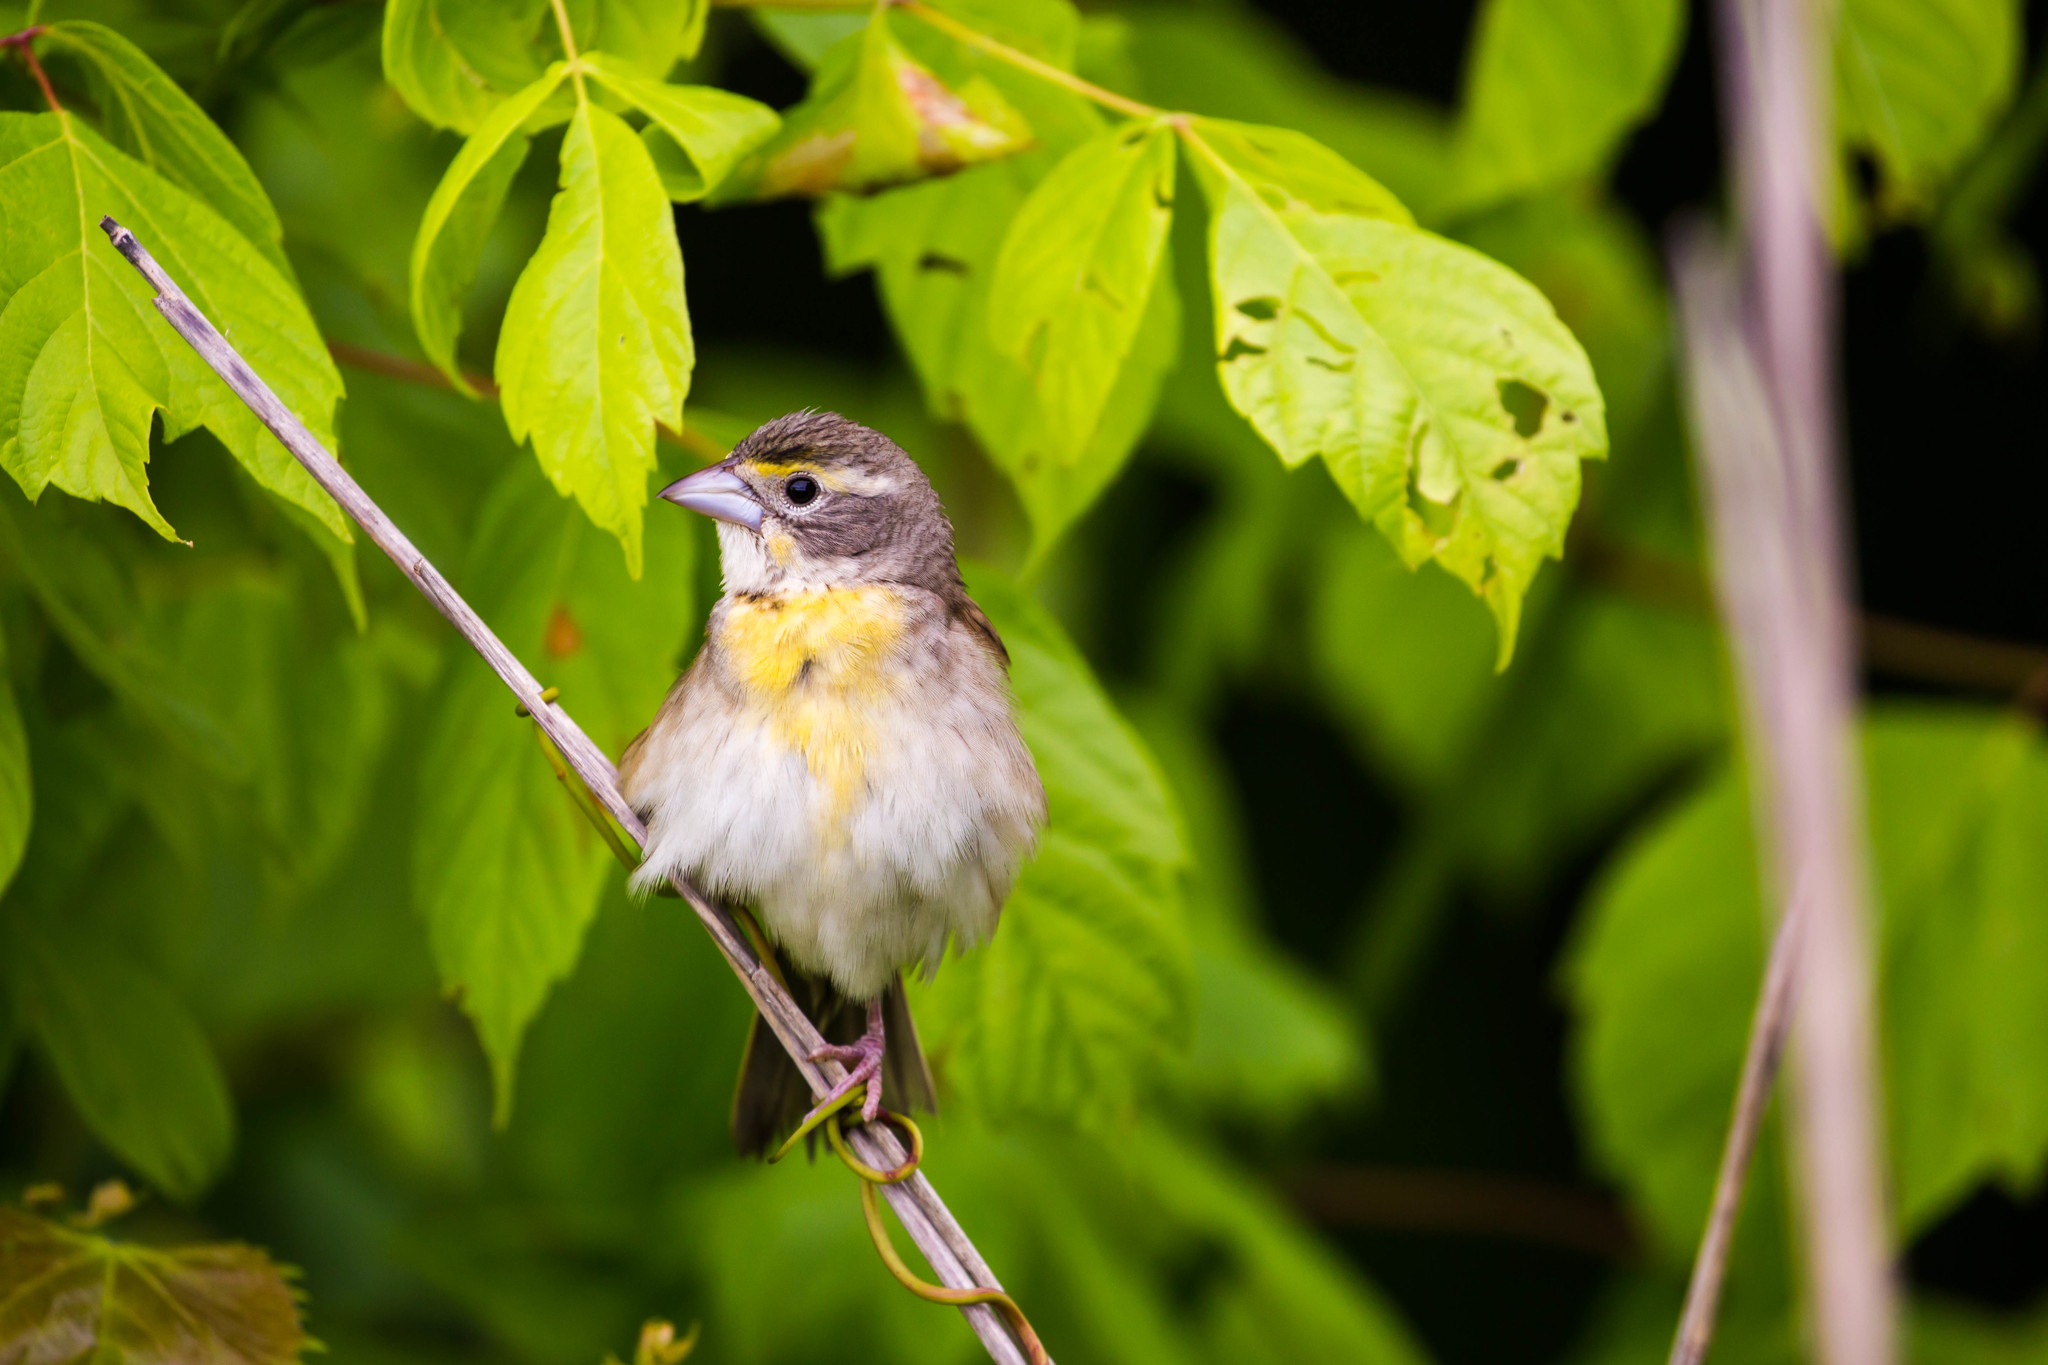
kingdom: Animalia
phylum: Chordata
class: Aves
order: Passeriformes
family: Cardinalidae
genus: Spiza
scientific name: Spiza americana
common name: Dickcissel
